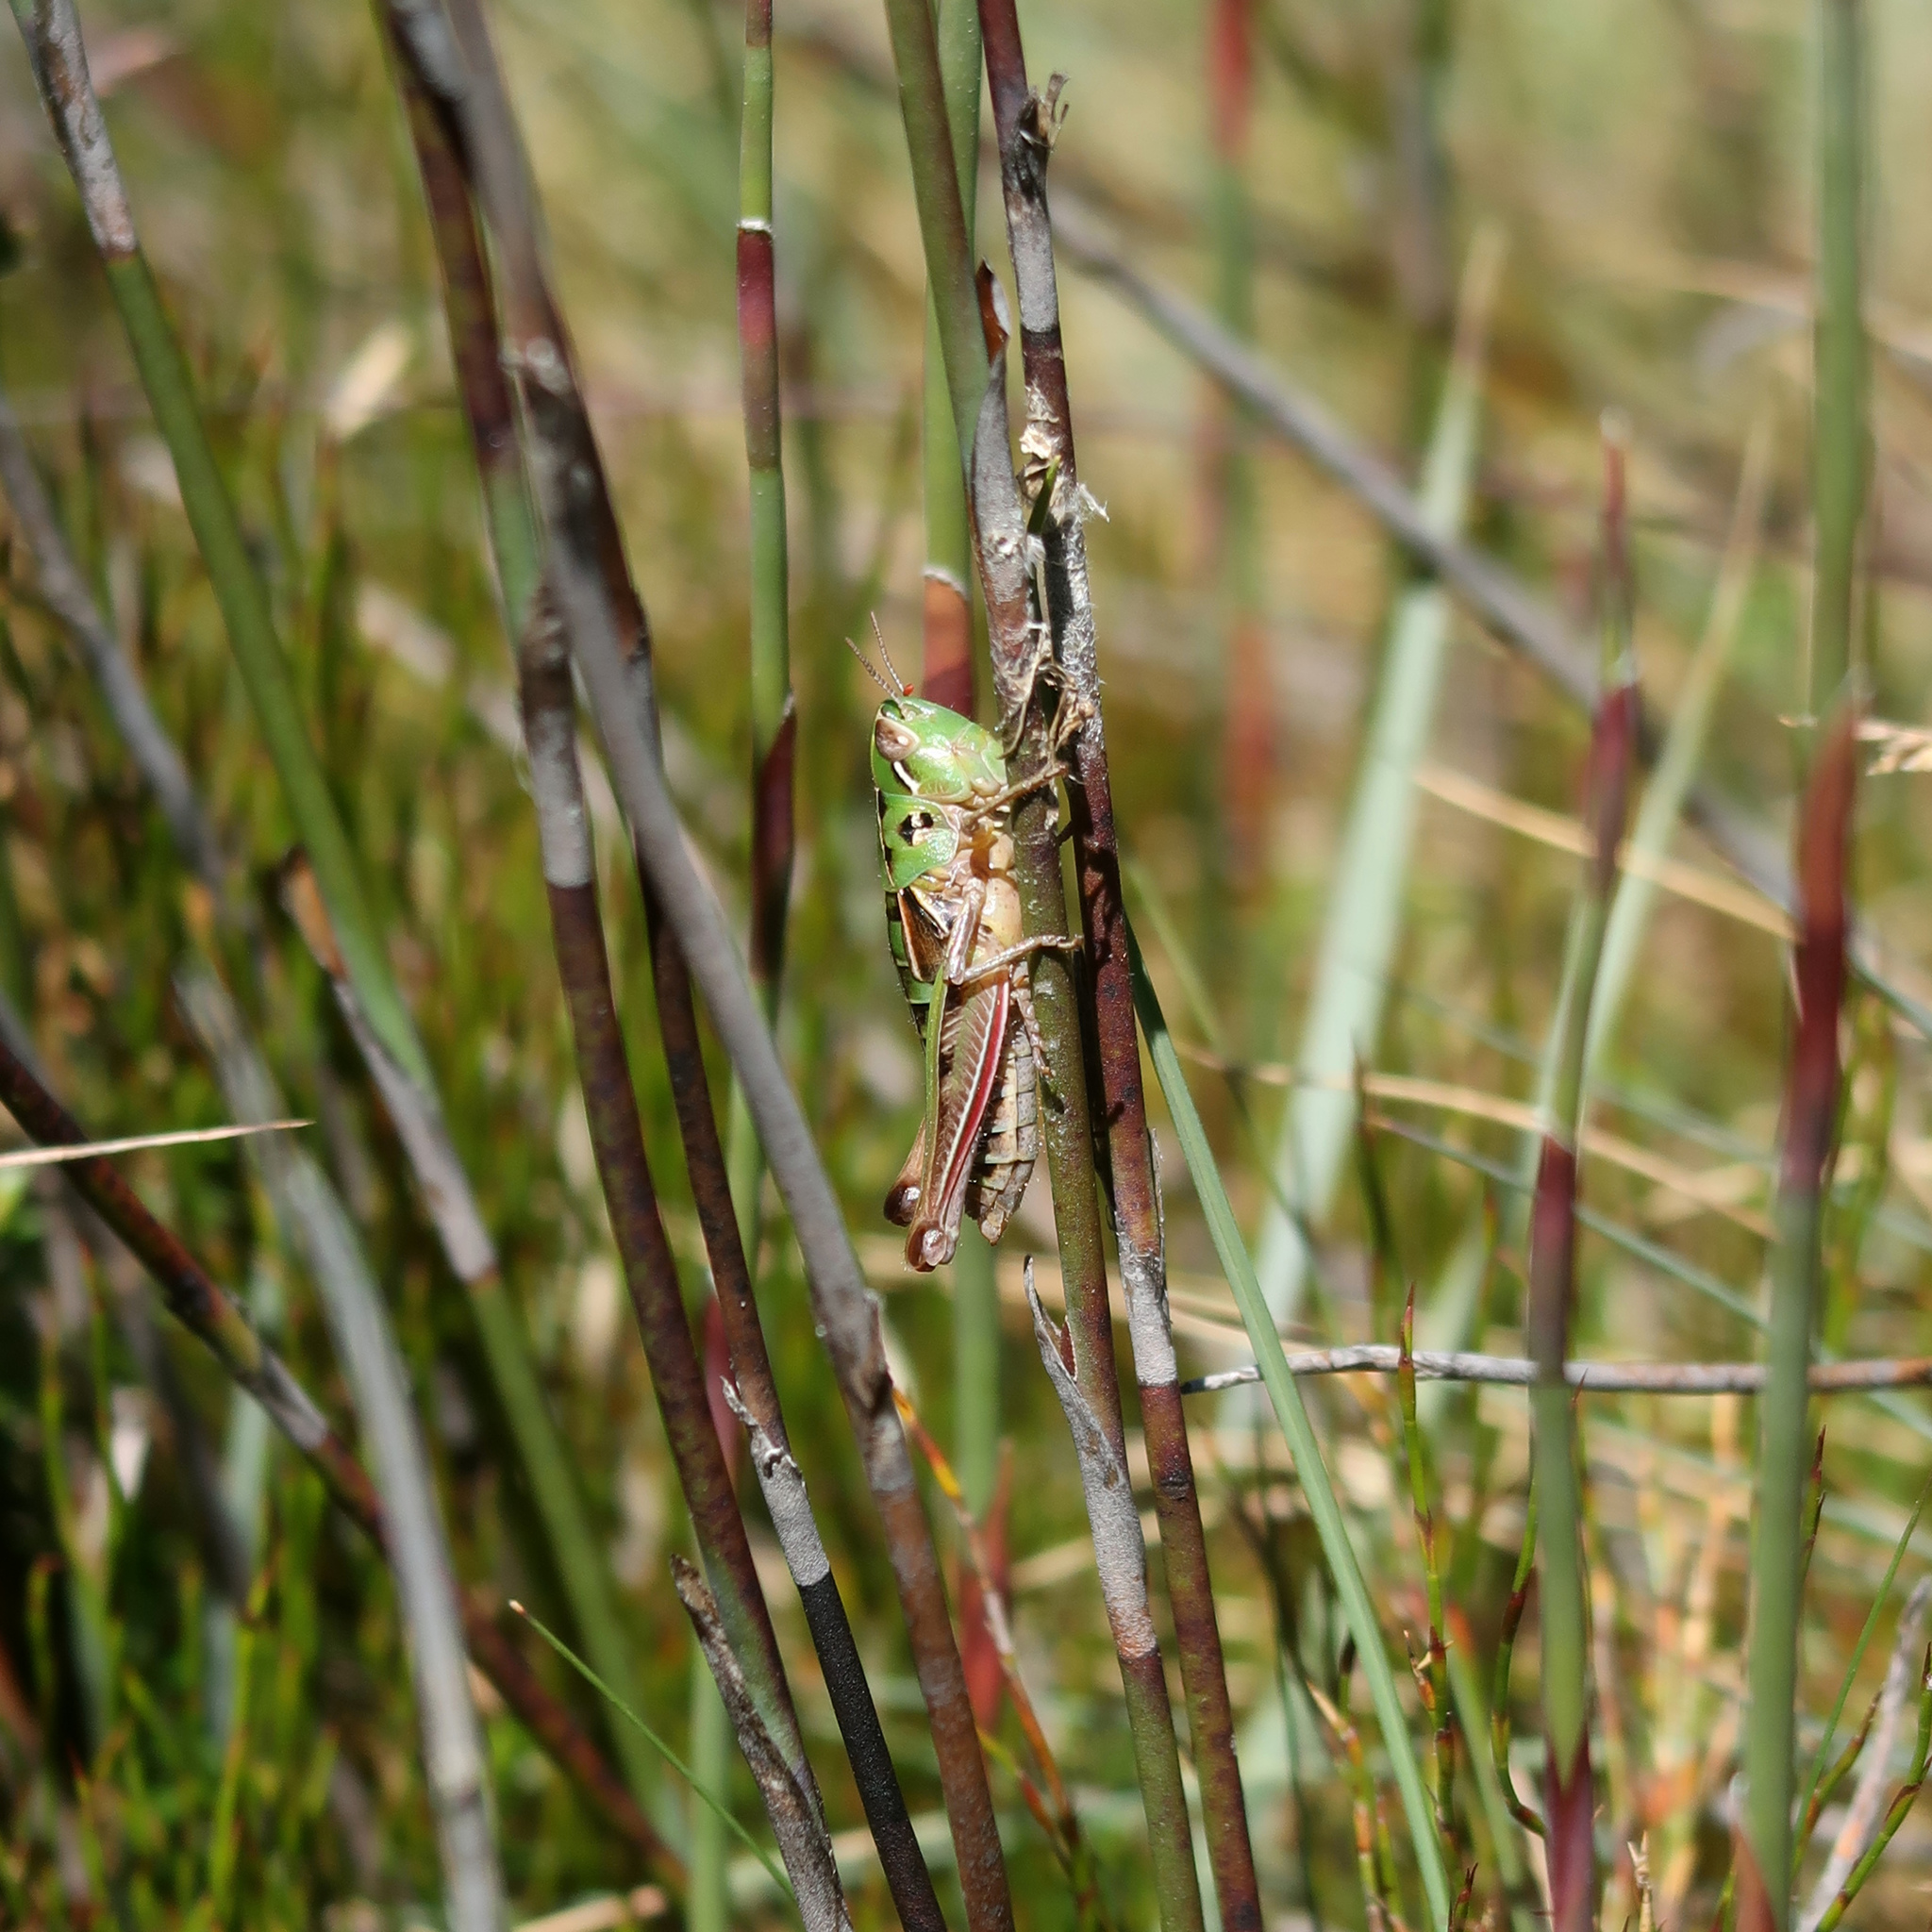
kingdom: Animalia
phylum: Arthropoda
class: Insecta
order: Orthoptera
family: Acrididae
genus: Kosciuscola
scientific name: Kosciuscola tasmanicus
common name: Tasmanian skyhopper
